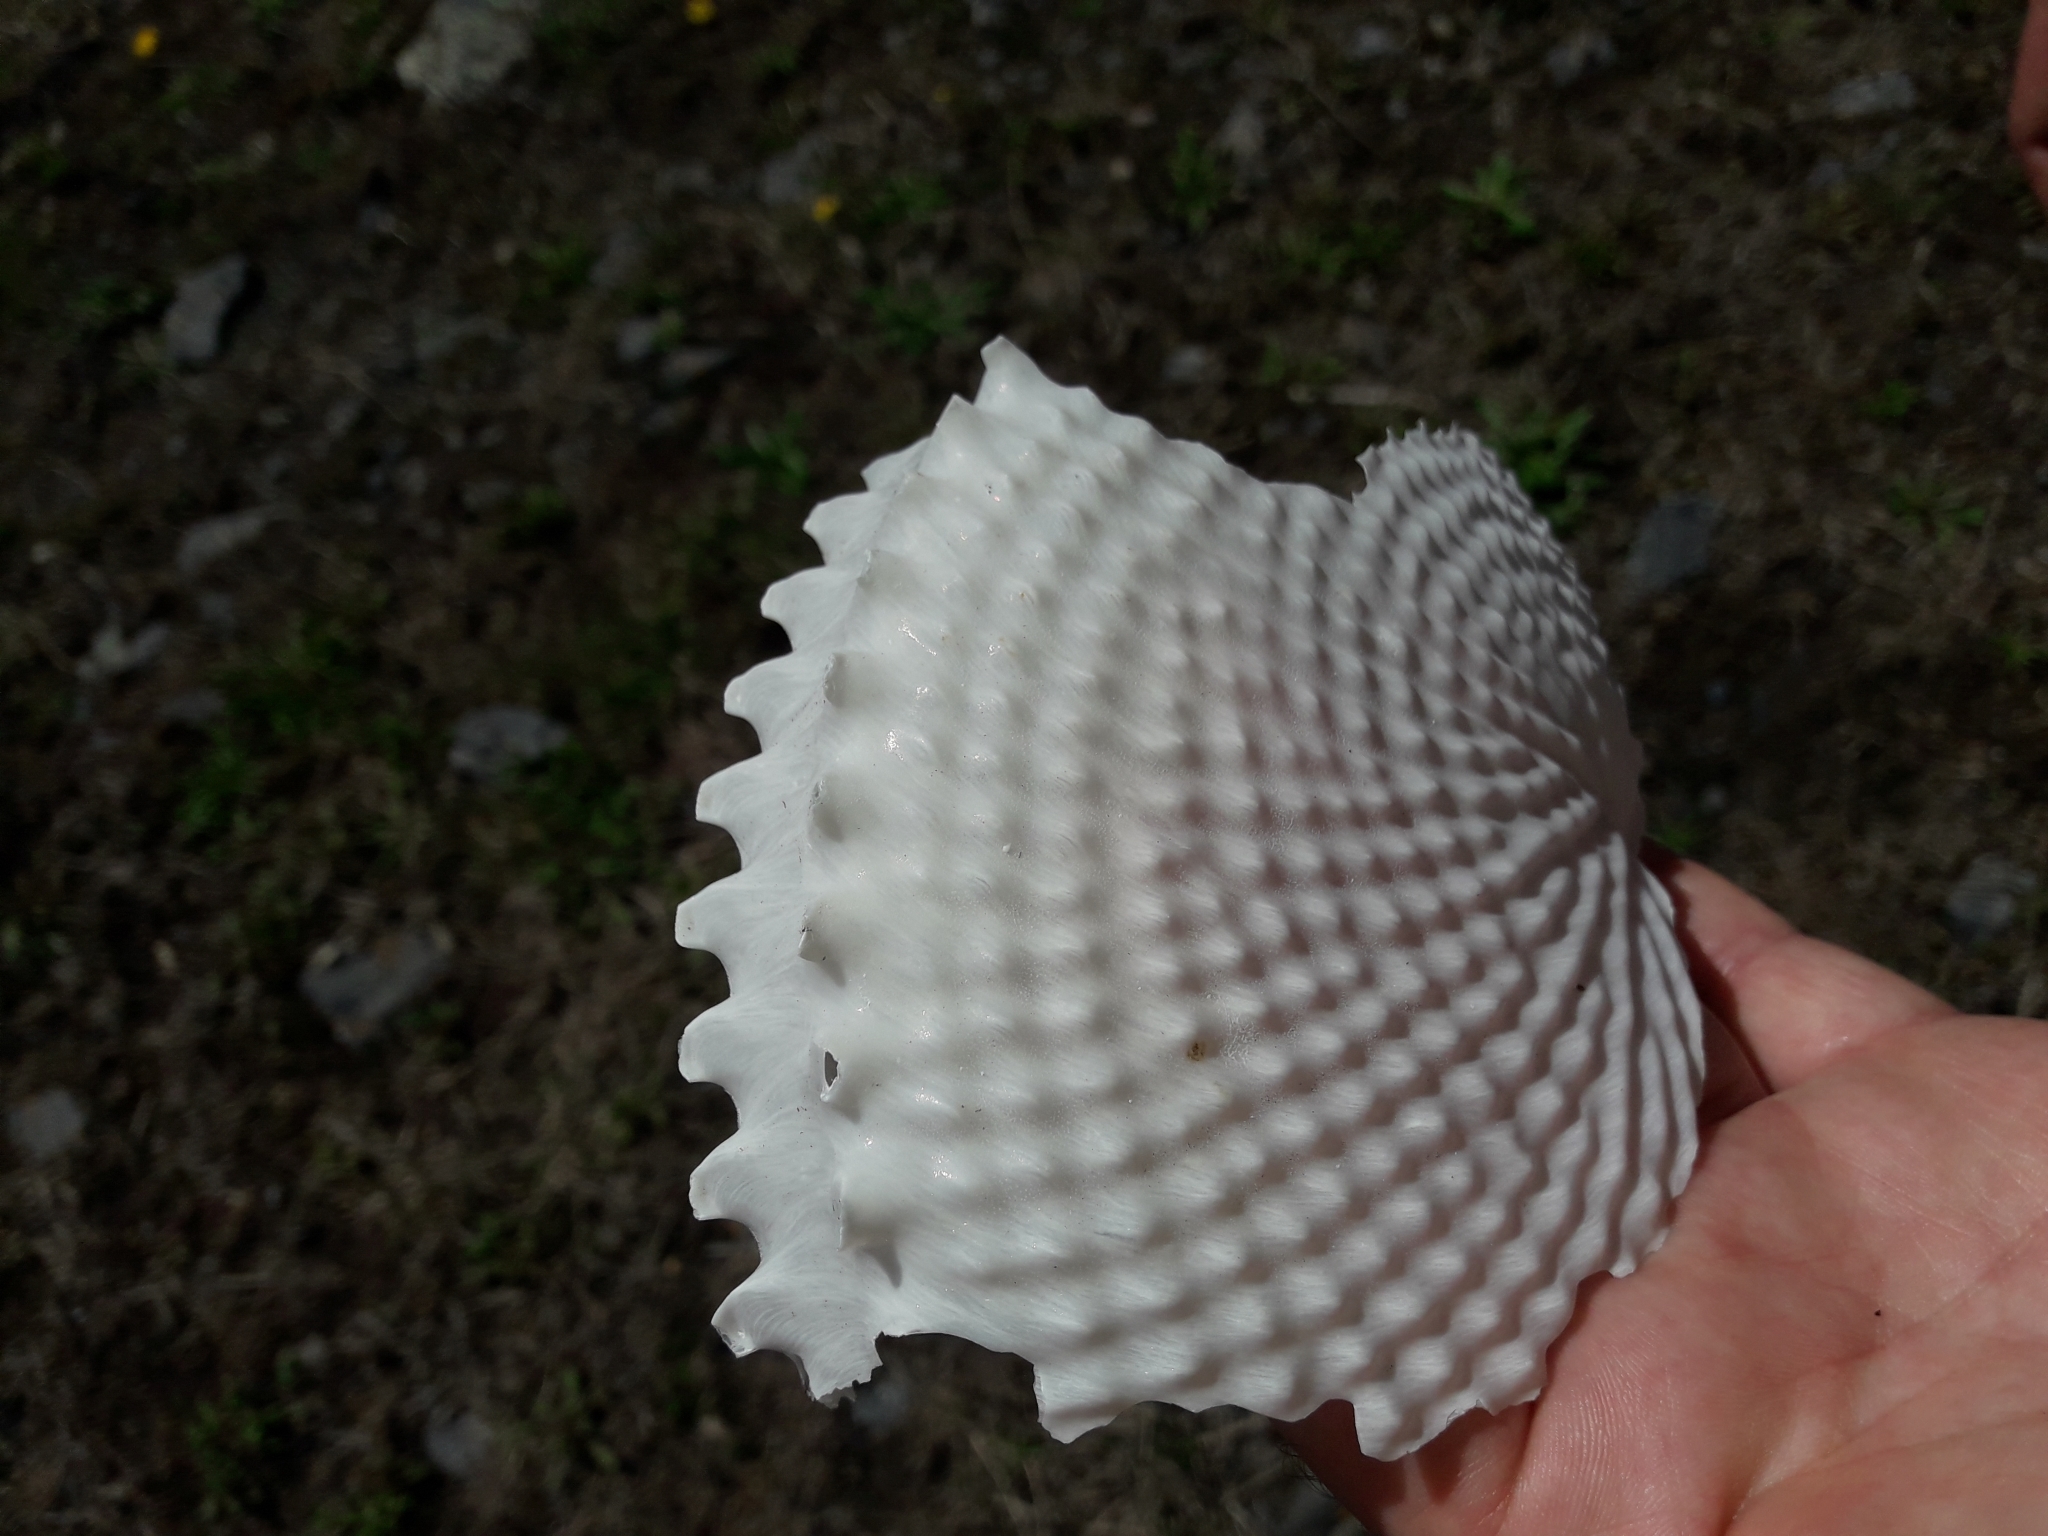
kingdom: Animalia
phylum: Mollusca
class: Cephalopoda
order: Octopoda
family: Argonautidae
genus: Argonauta
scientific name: Argonauta nodosus
